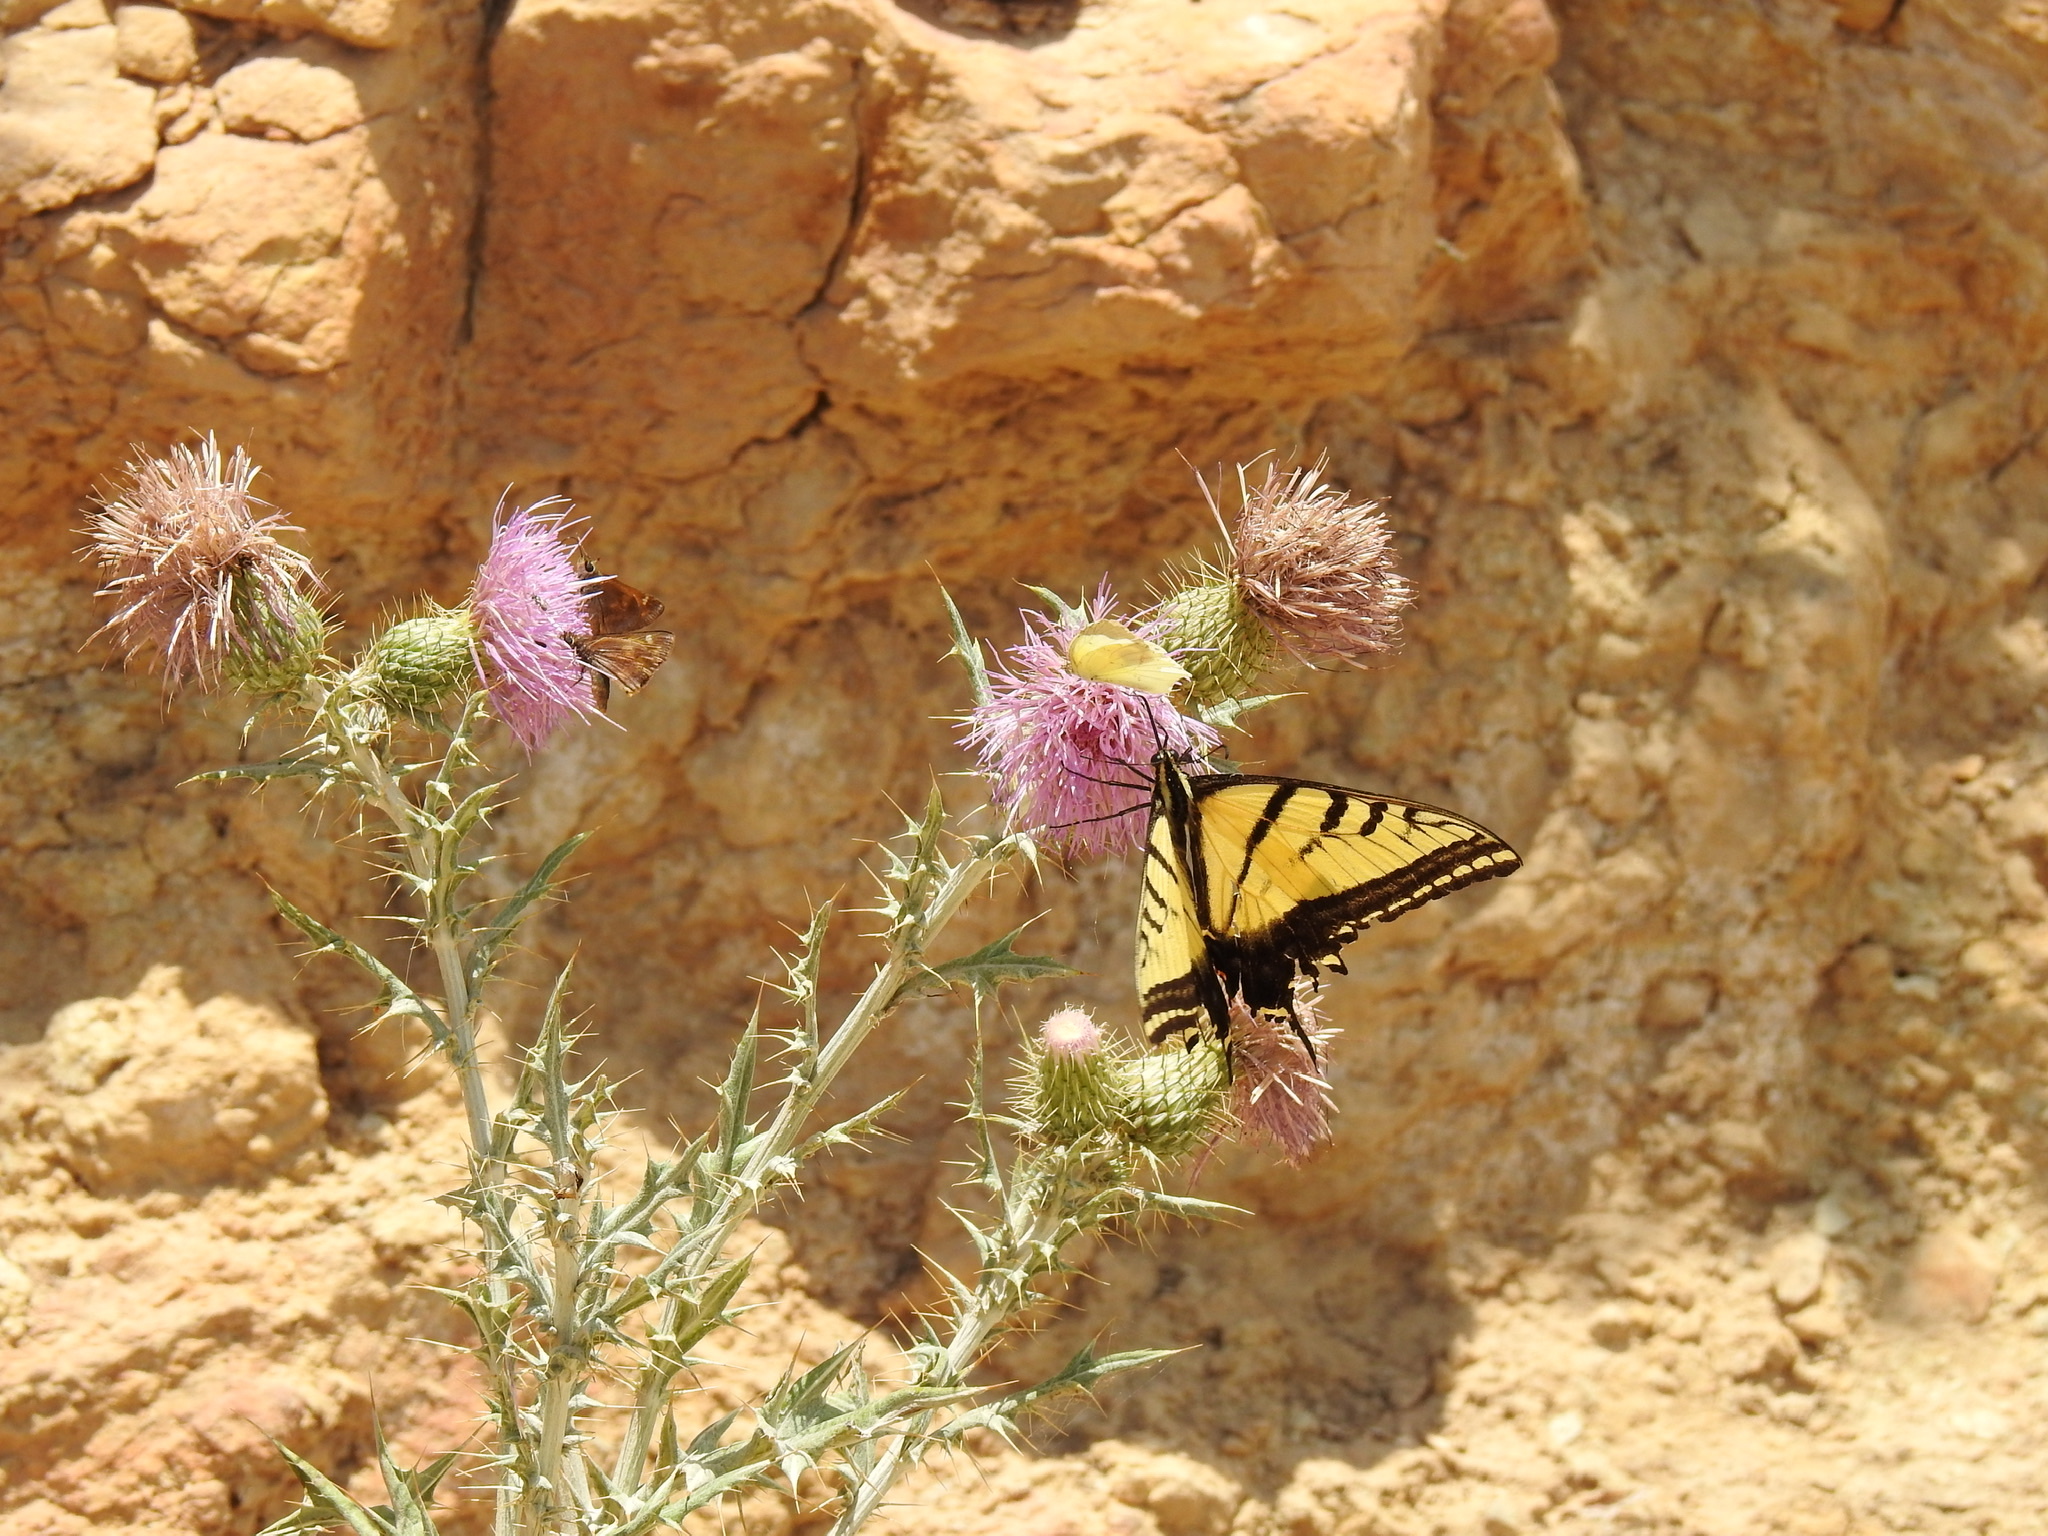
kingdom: Animalia
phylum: Arthropoda
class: Insecta
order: Lepidoptera
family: Papilionidae
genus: Papilio
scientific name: Papilio multicaudata
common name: Two-tailed tiger swallowtail
